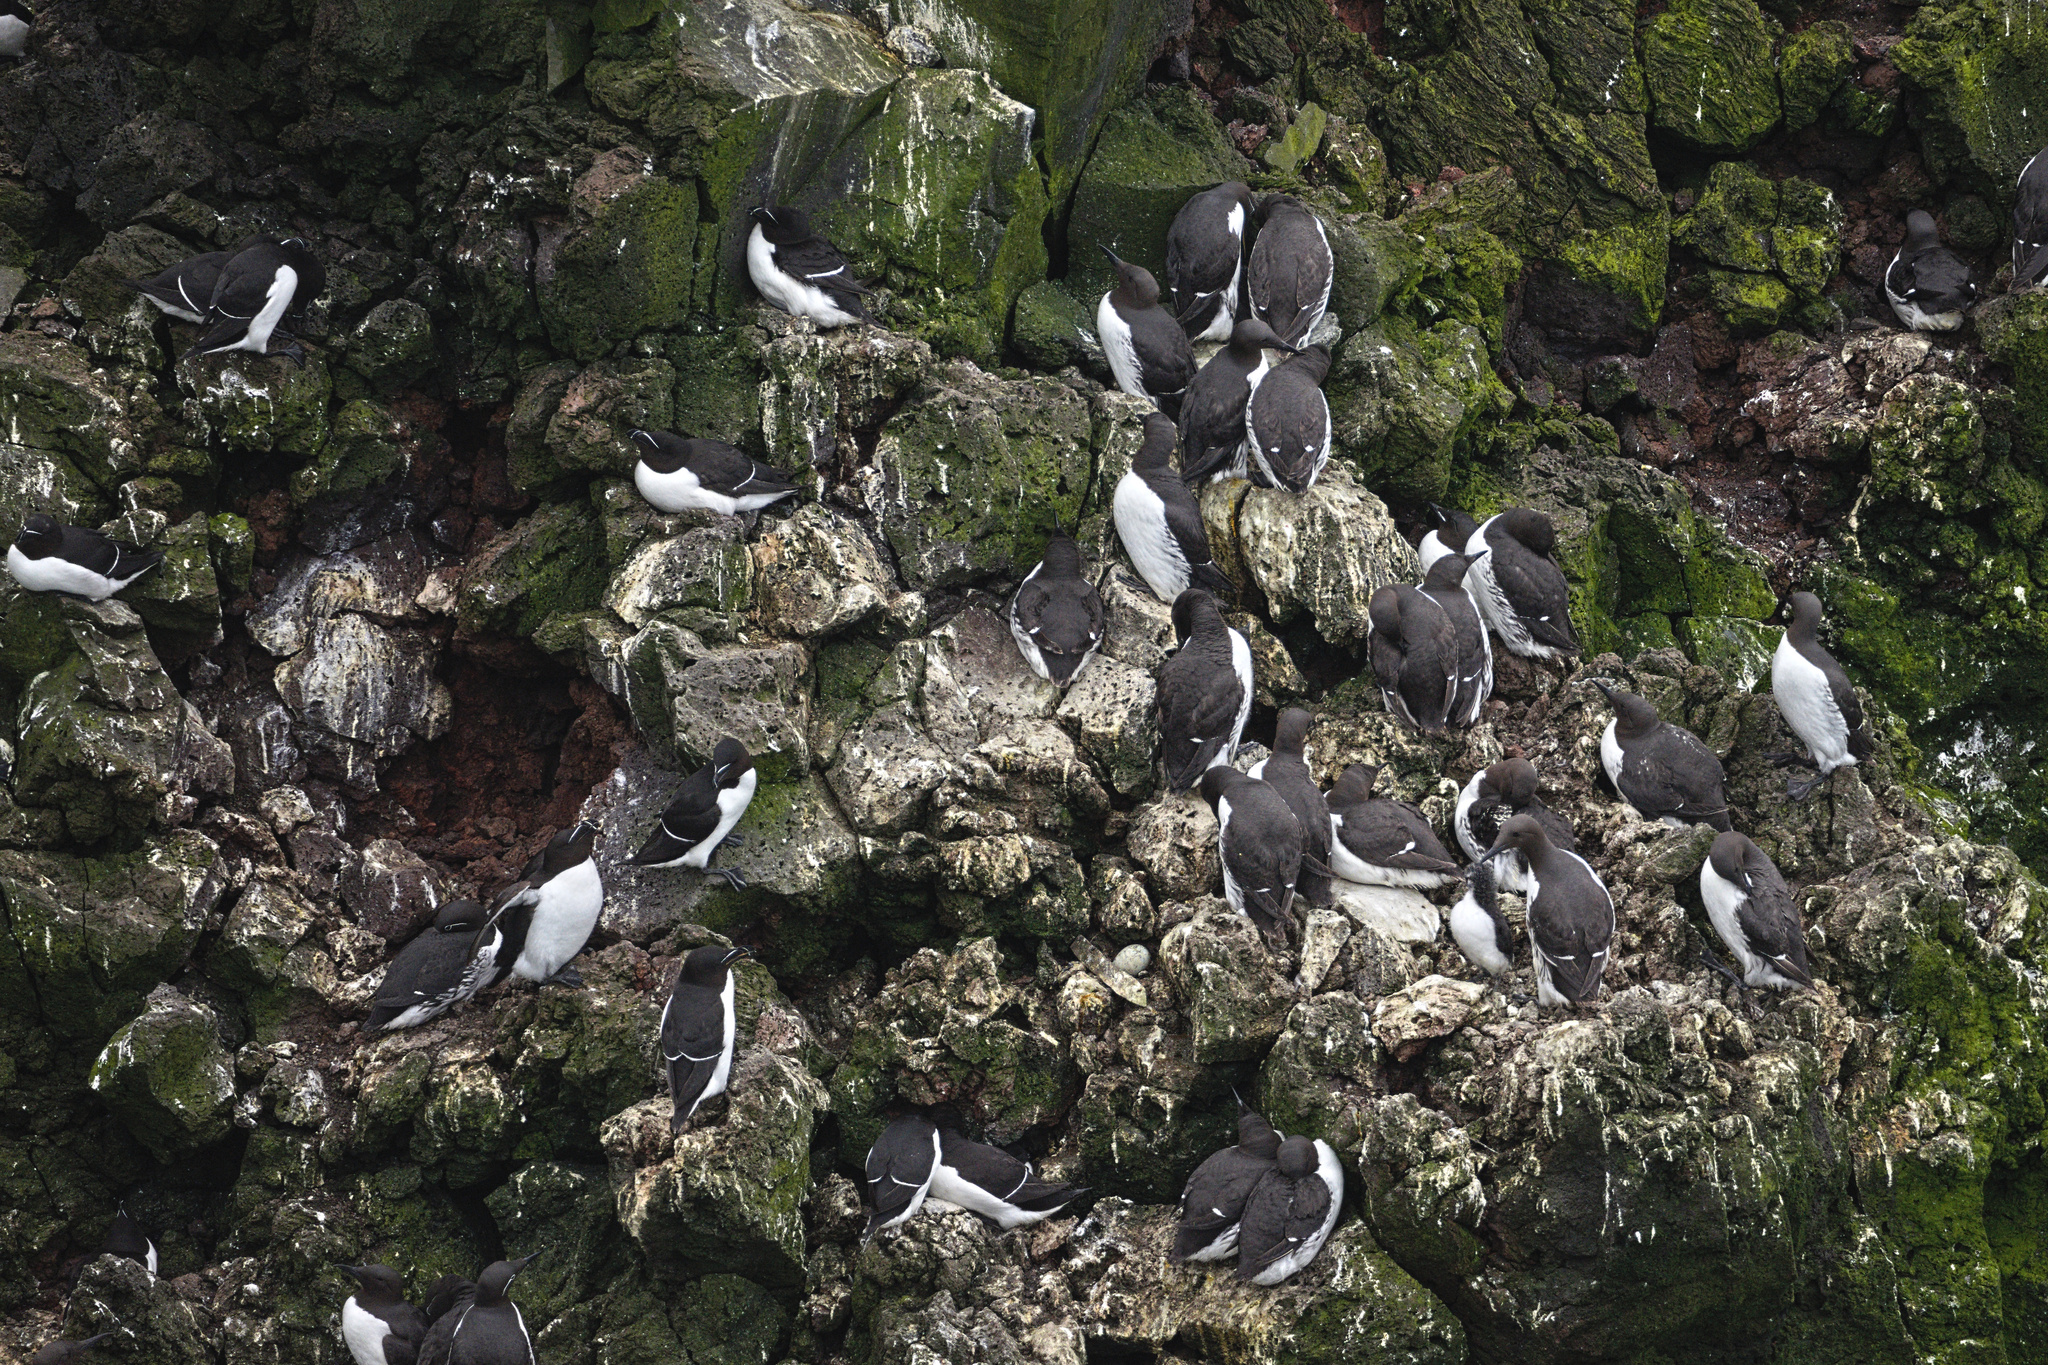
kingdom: Animalia
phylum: Chordata
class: Aves
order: Charadriiformes
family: Alcidae
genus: Uria
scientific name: Uria aalge
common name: Common murre
